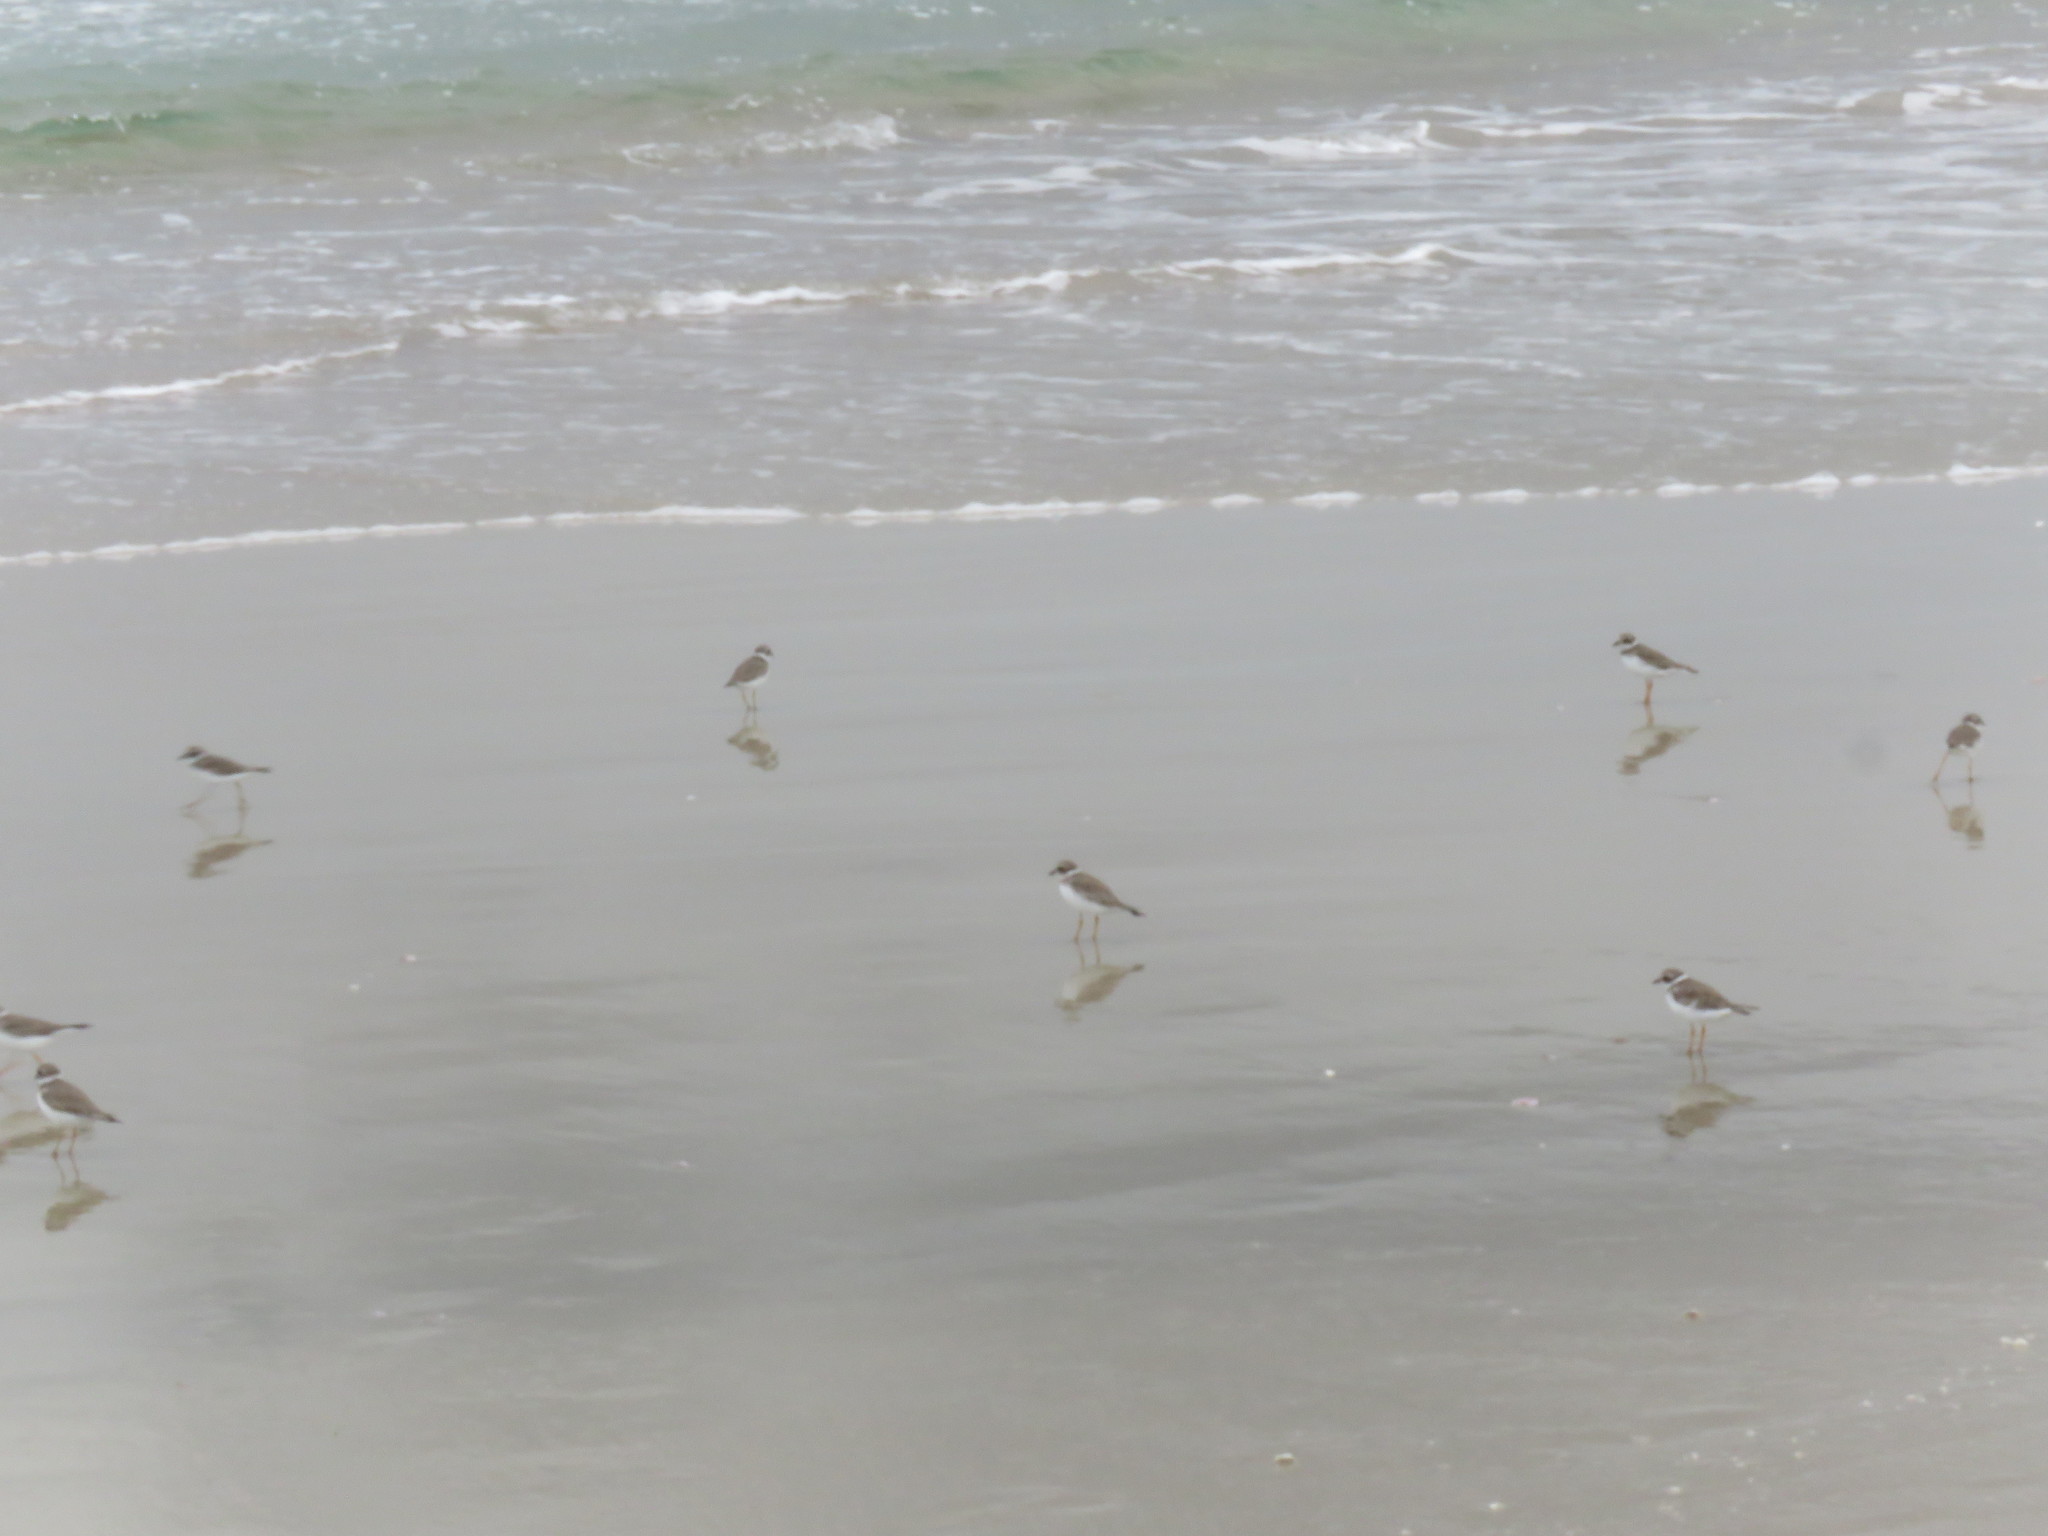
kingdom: Animalia
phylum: Chordata
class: Aves
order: Charadriiformes
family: Charadriidae
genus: Charadrius
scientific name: Charadrius semipalmatus
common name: Semipalmated plover
